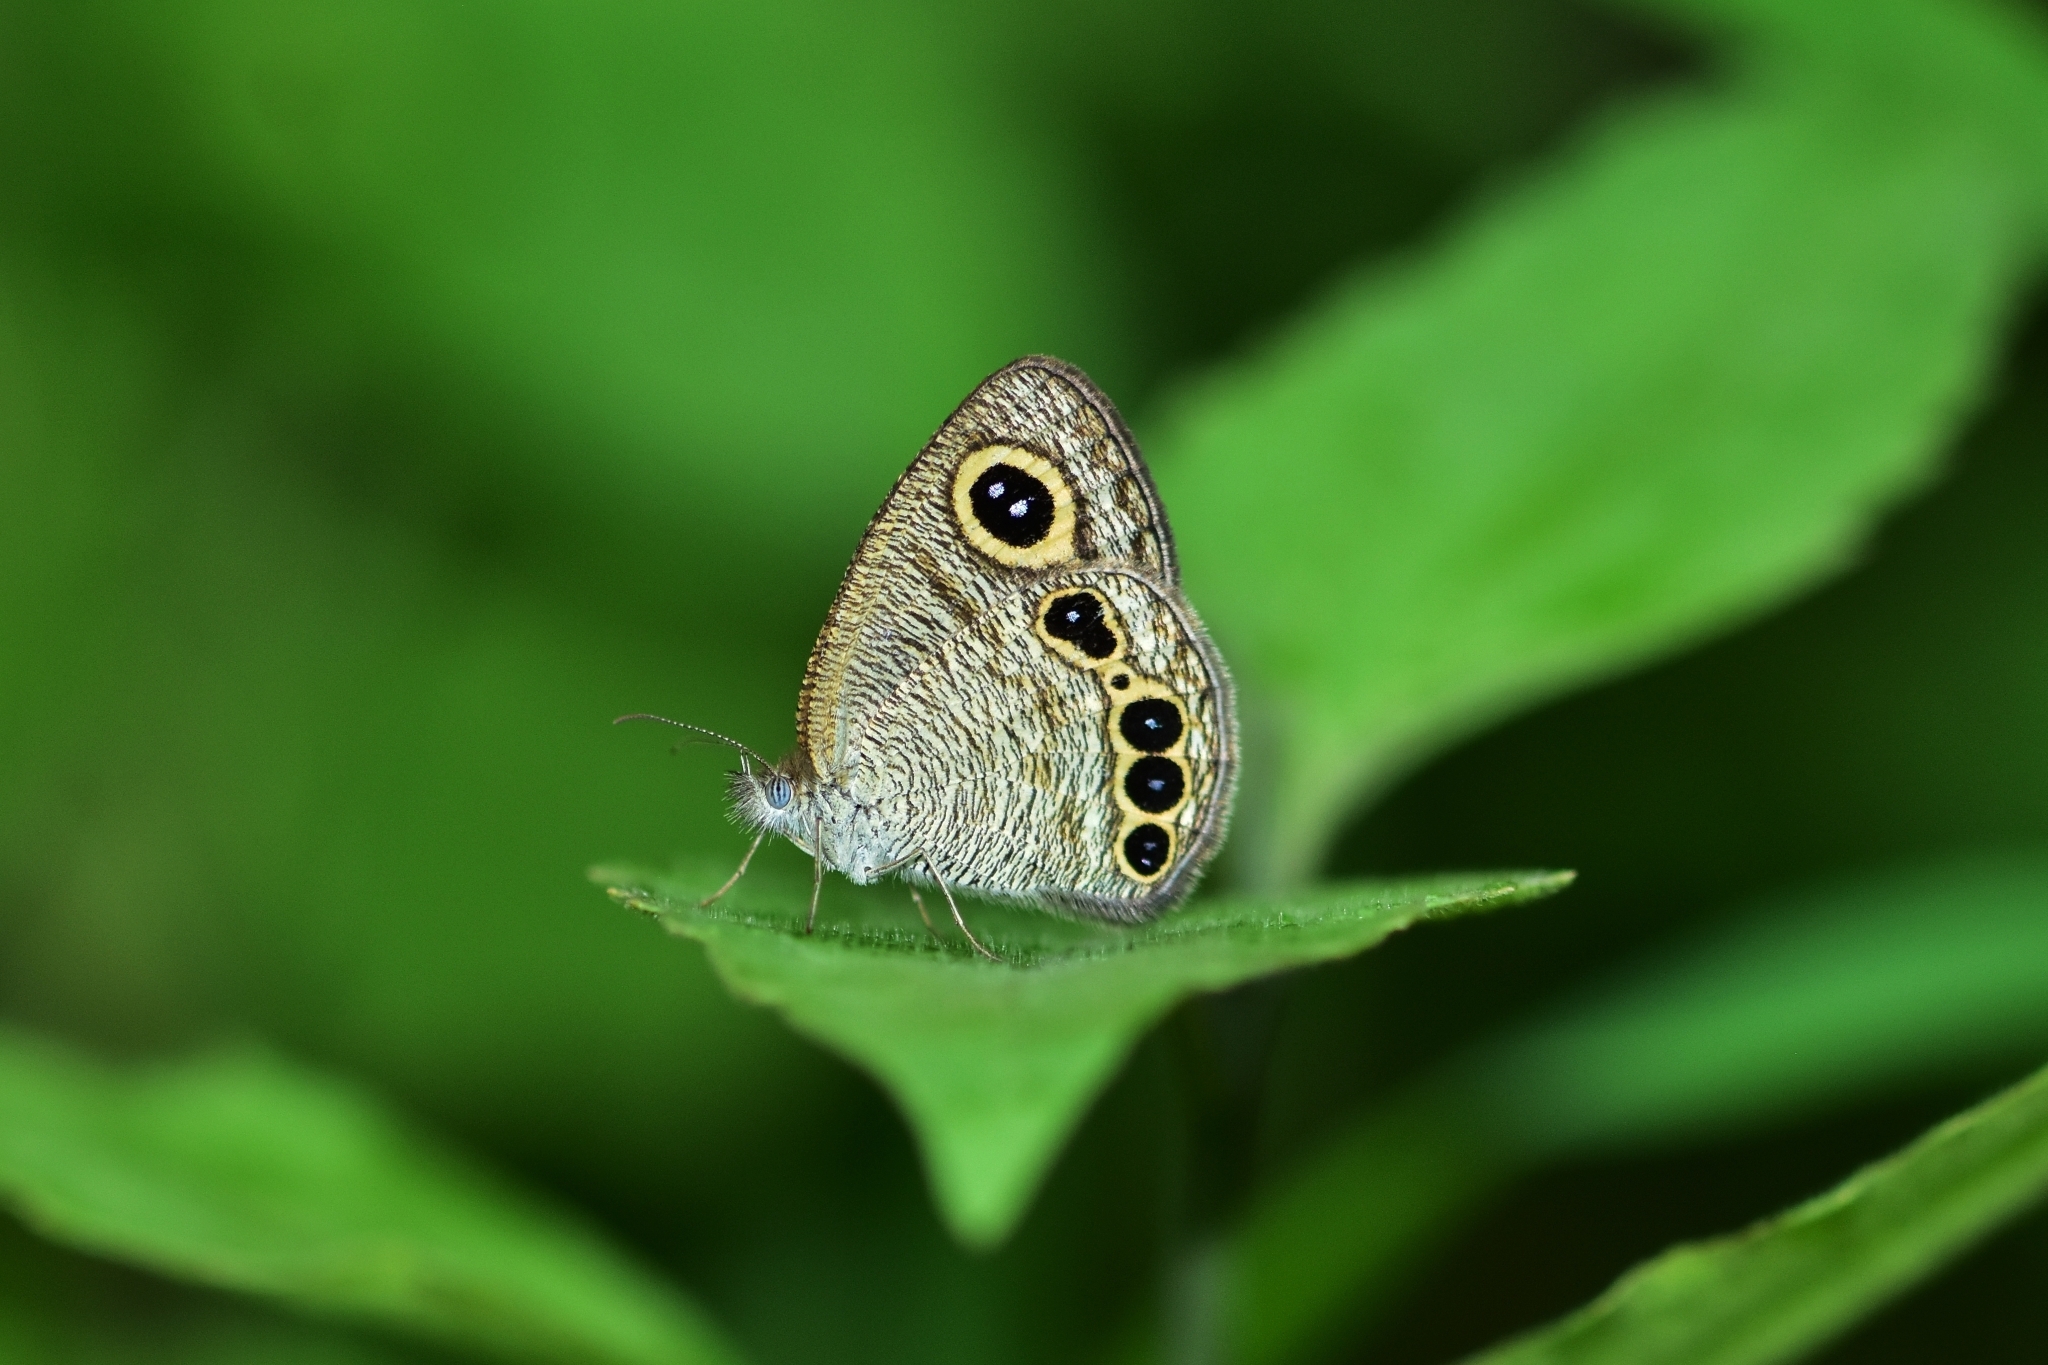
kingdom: Animalia
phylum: Arthropoda
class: Insecta
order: Lepidoptera
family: Nymphalidae
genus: Ypthima
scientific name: Ypthima huebneri
